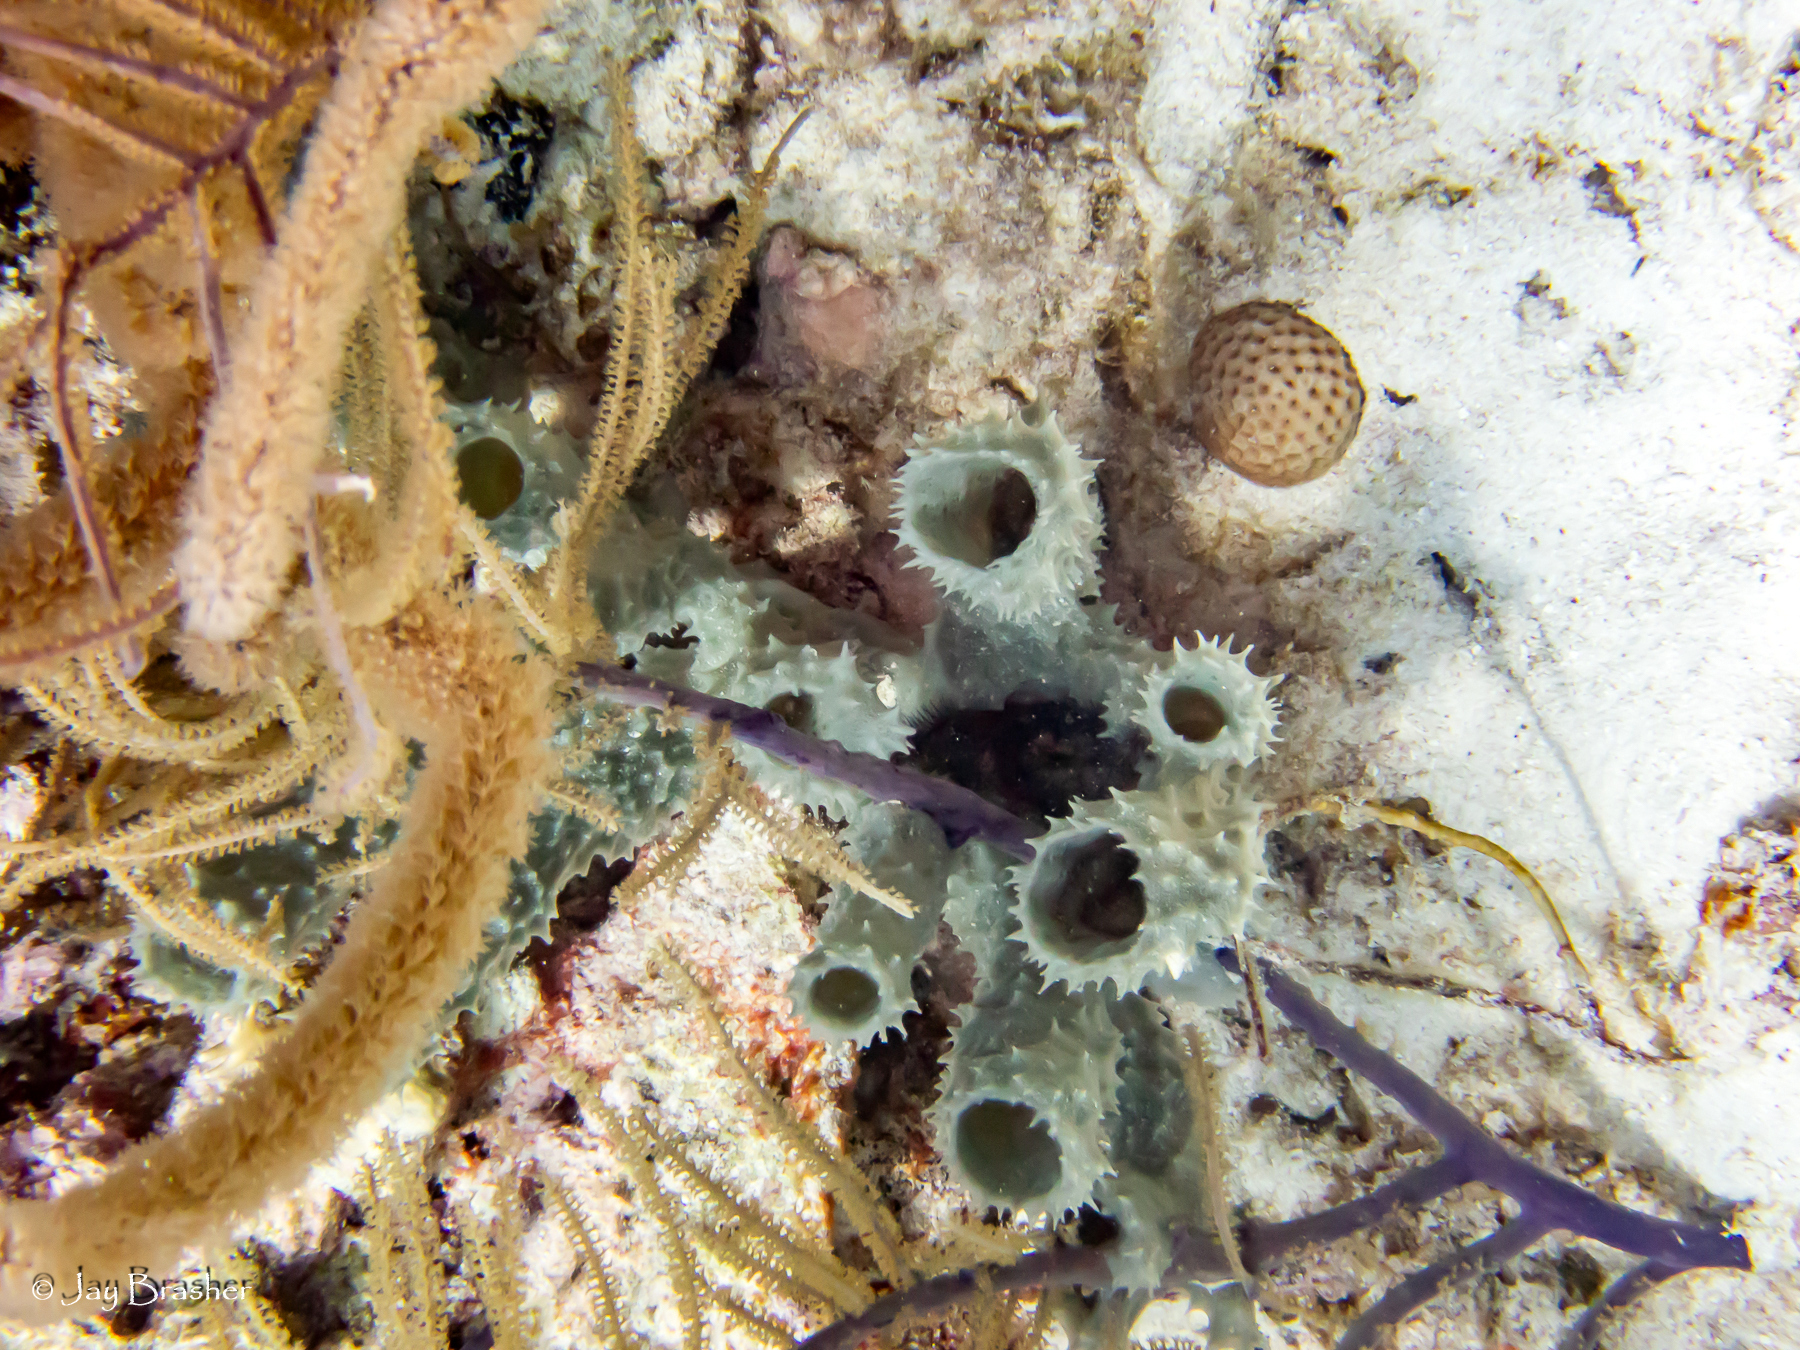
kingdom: Animalia
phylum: Porifera
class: Demospongiae
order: Haplosclerida
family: Callyspongiidae
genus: Callyspongia
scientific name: Callyspongia aculeata
